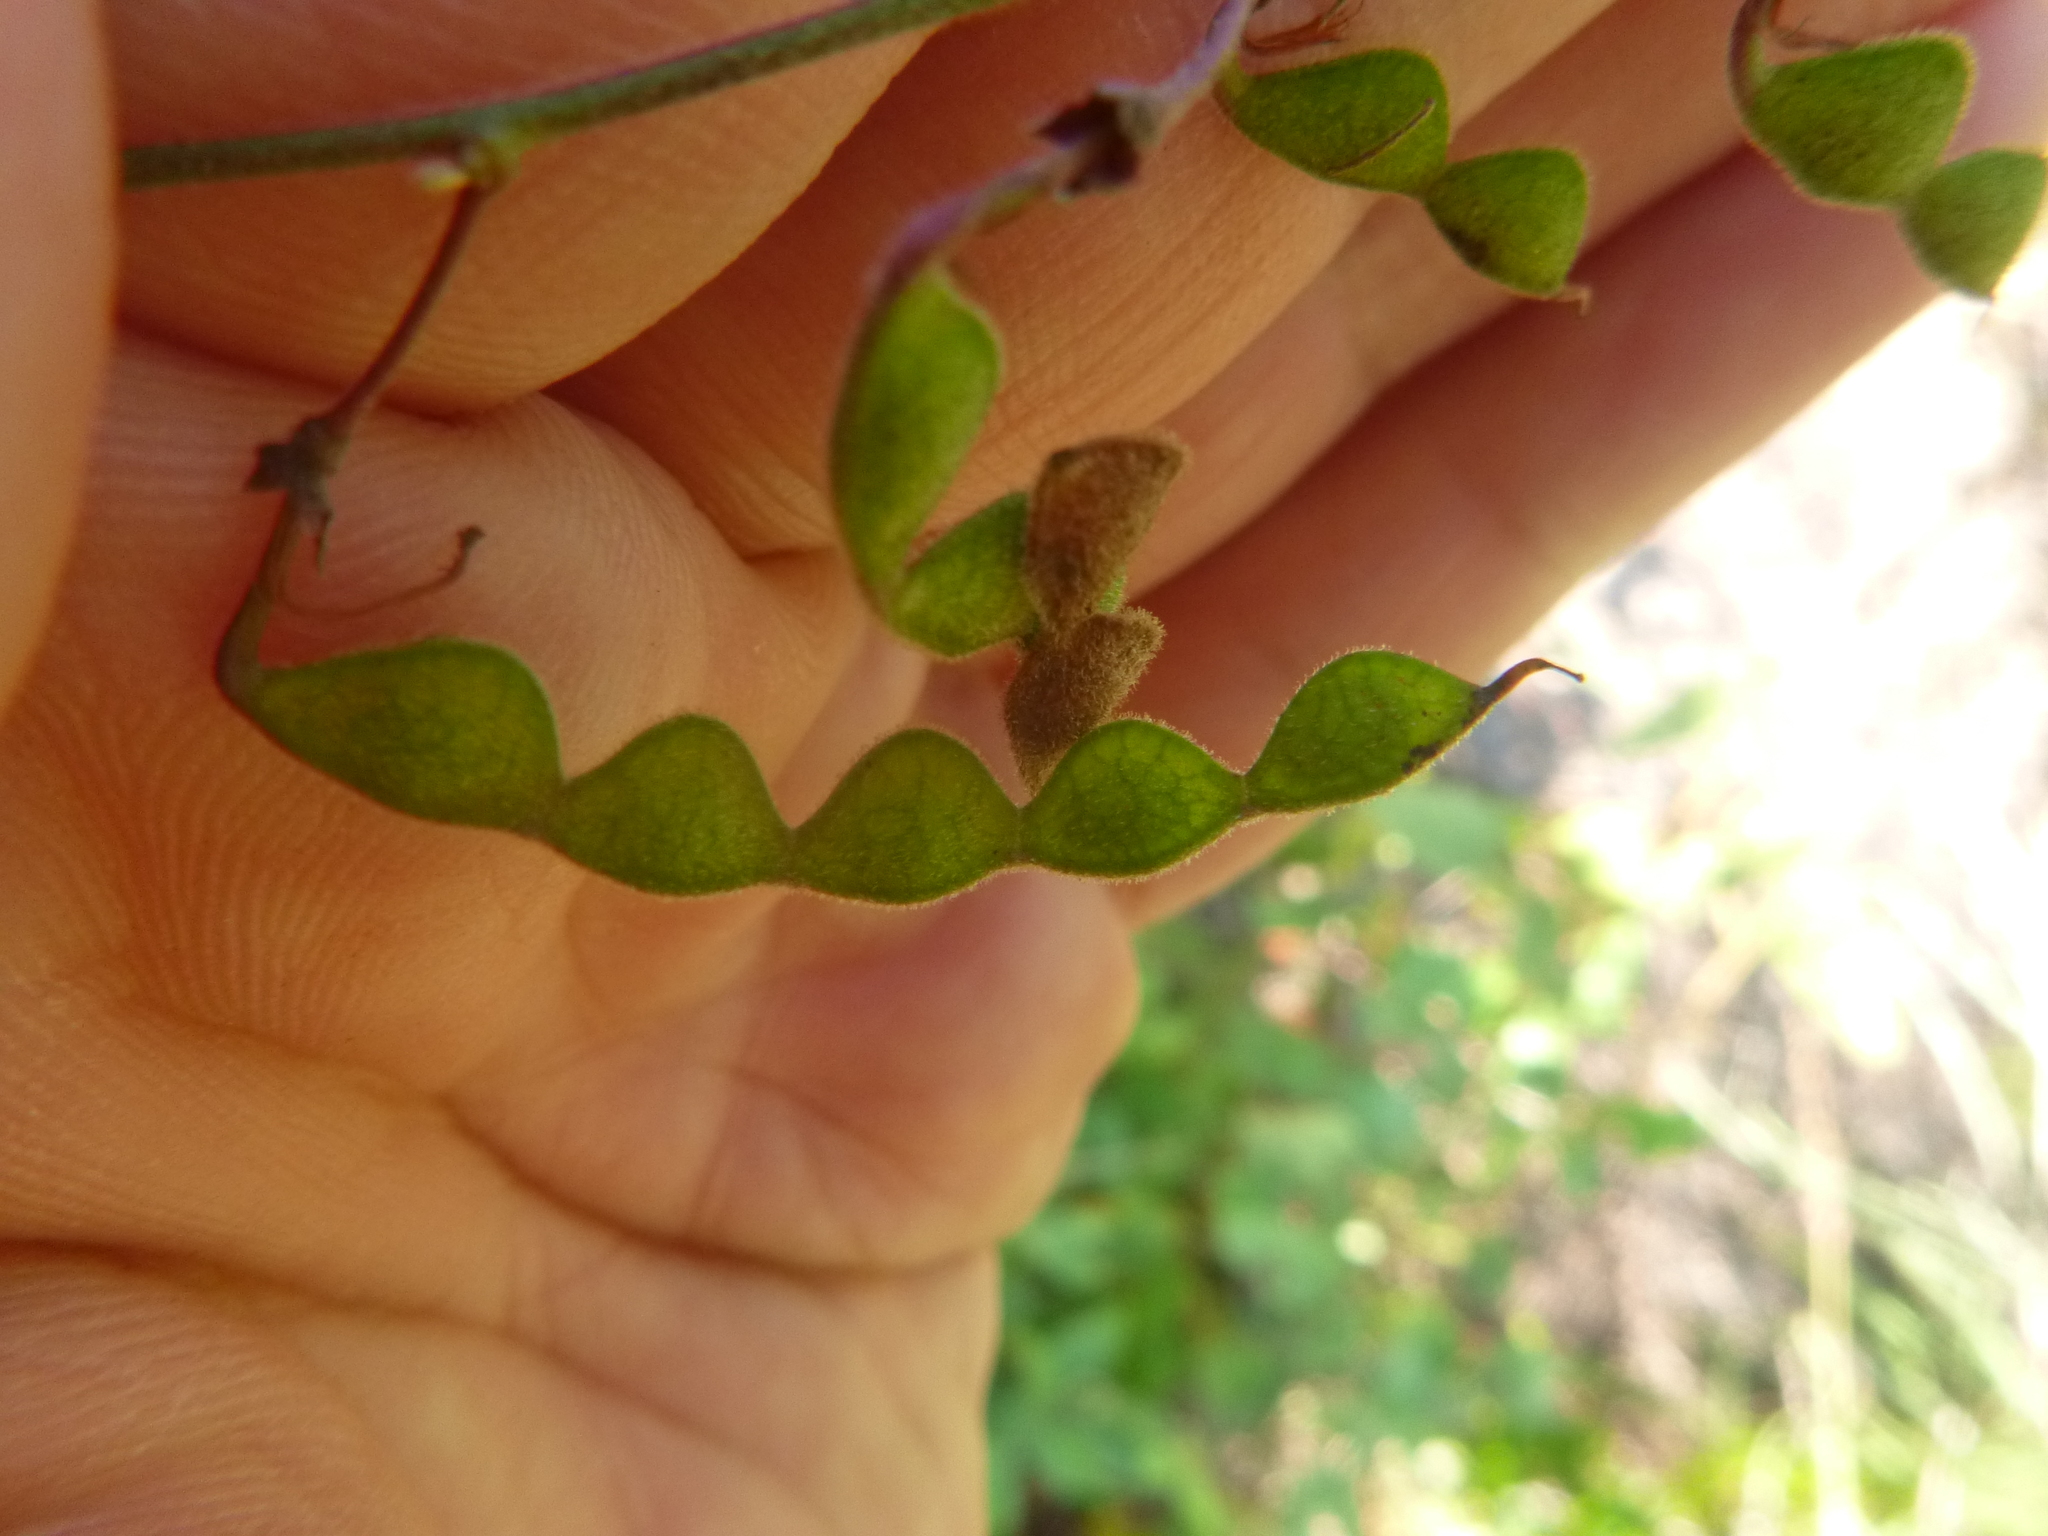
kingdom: Plantae
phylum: Tracheophyta
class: Magnoliopsida
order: Fabales
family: Fabaceae
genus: Desmodium
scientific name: Desmodium fernaldii
